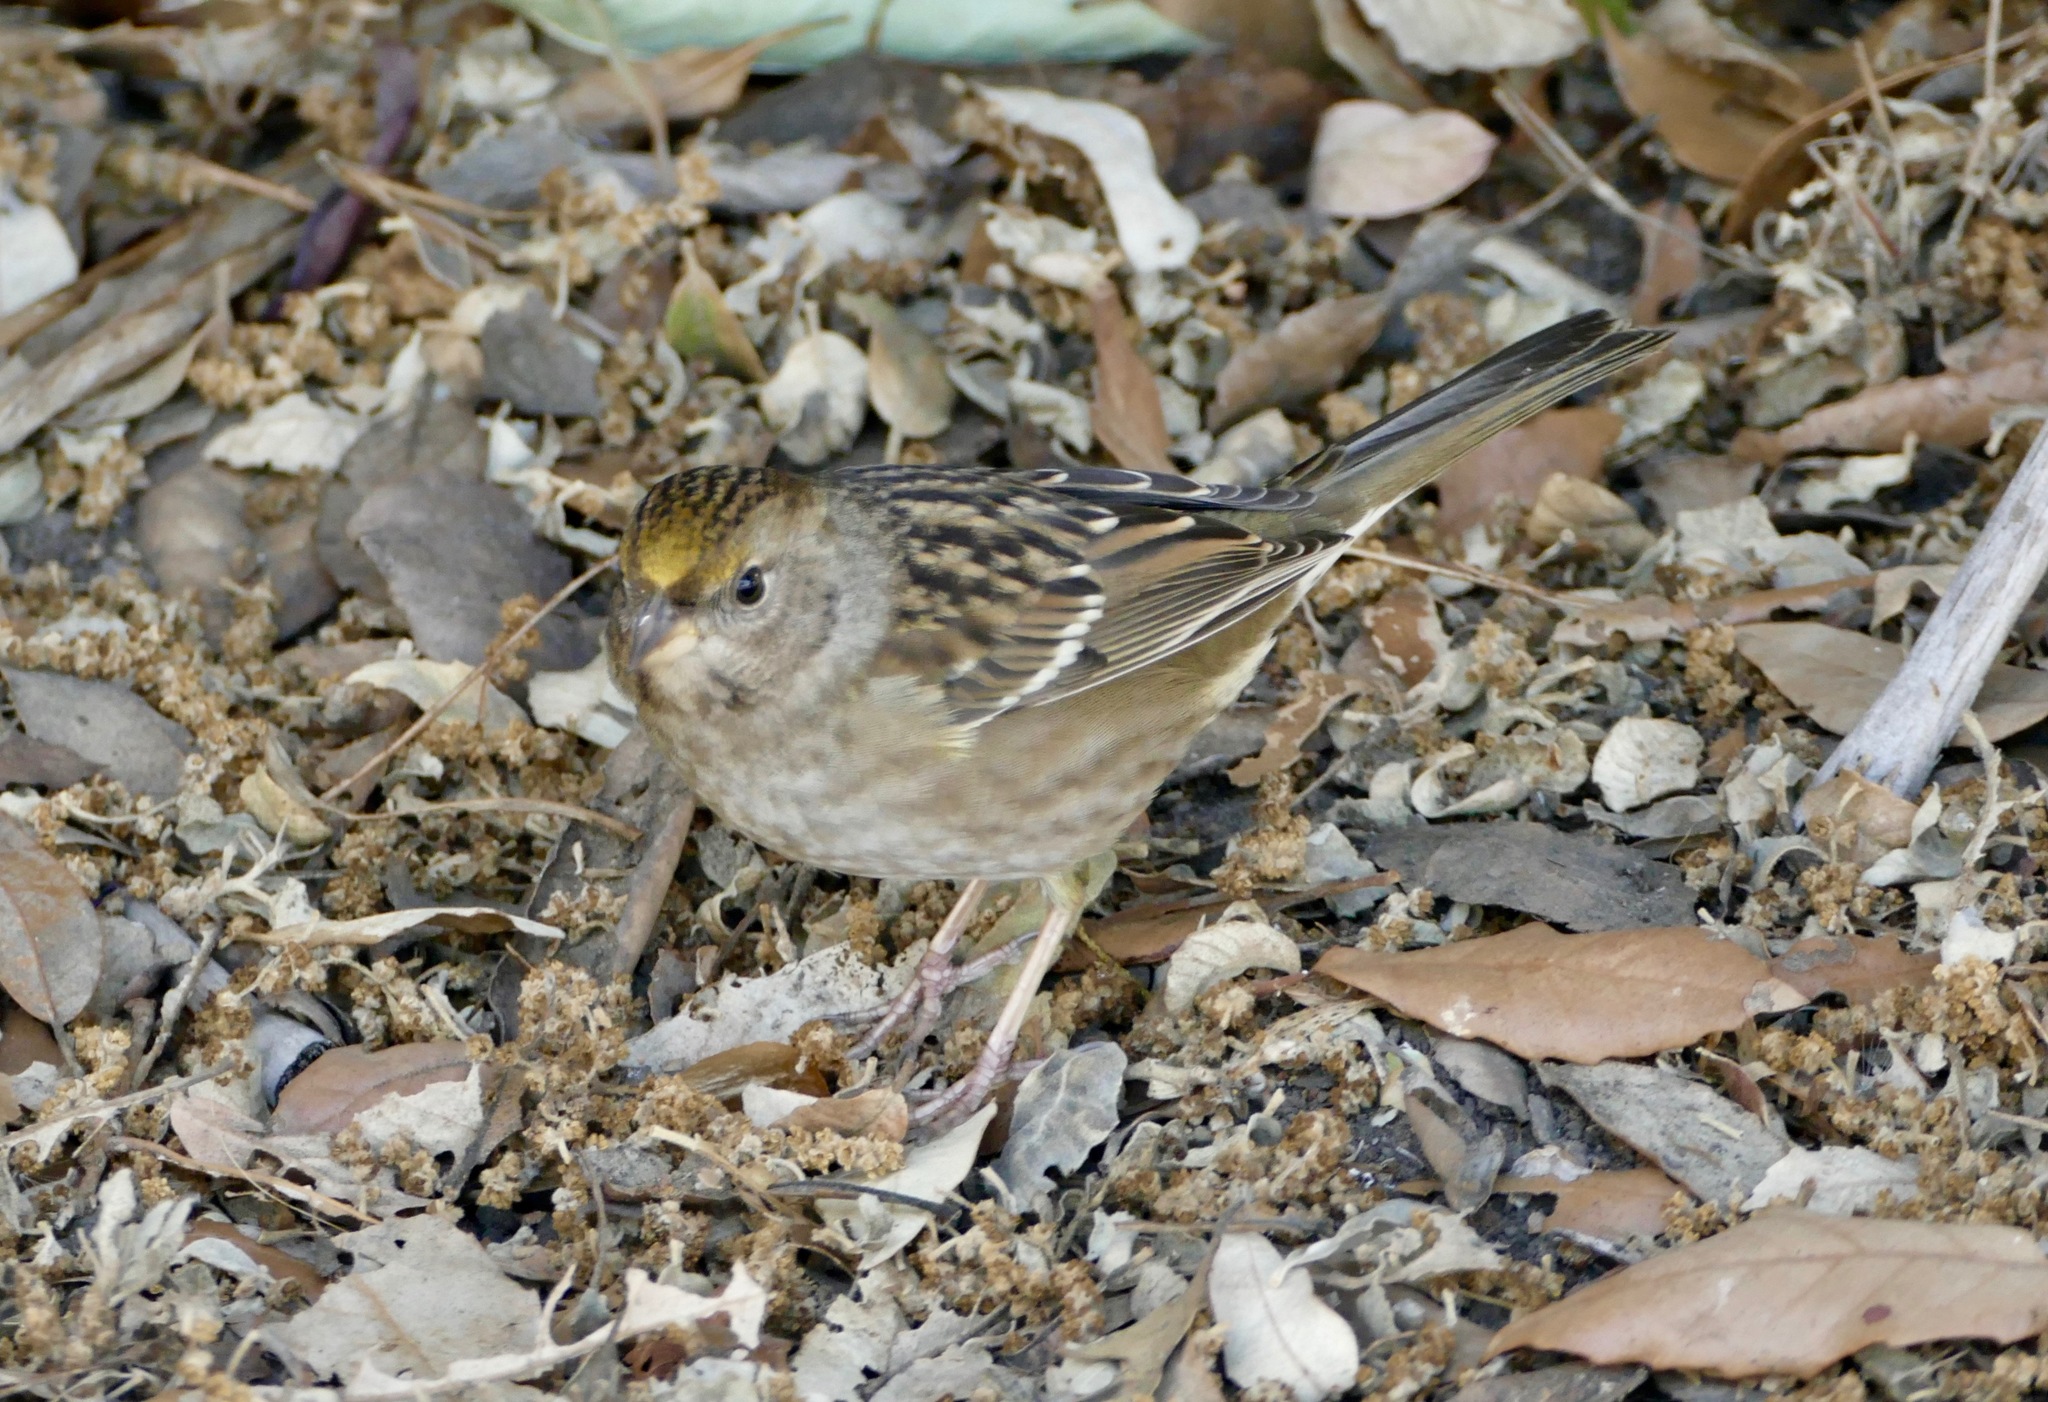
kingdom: Animalia
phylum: Chordata
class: Aves
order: Passeriformes
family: Passerellidae
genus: Zonotrichia
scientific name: Zonotrichia atricapilla
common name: Golden-crowned sparrow
